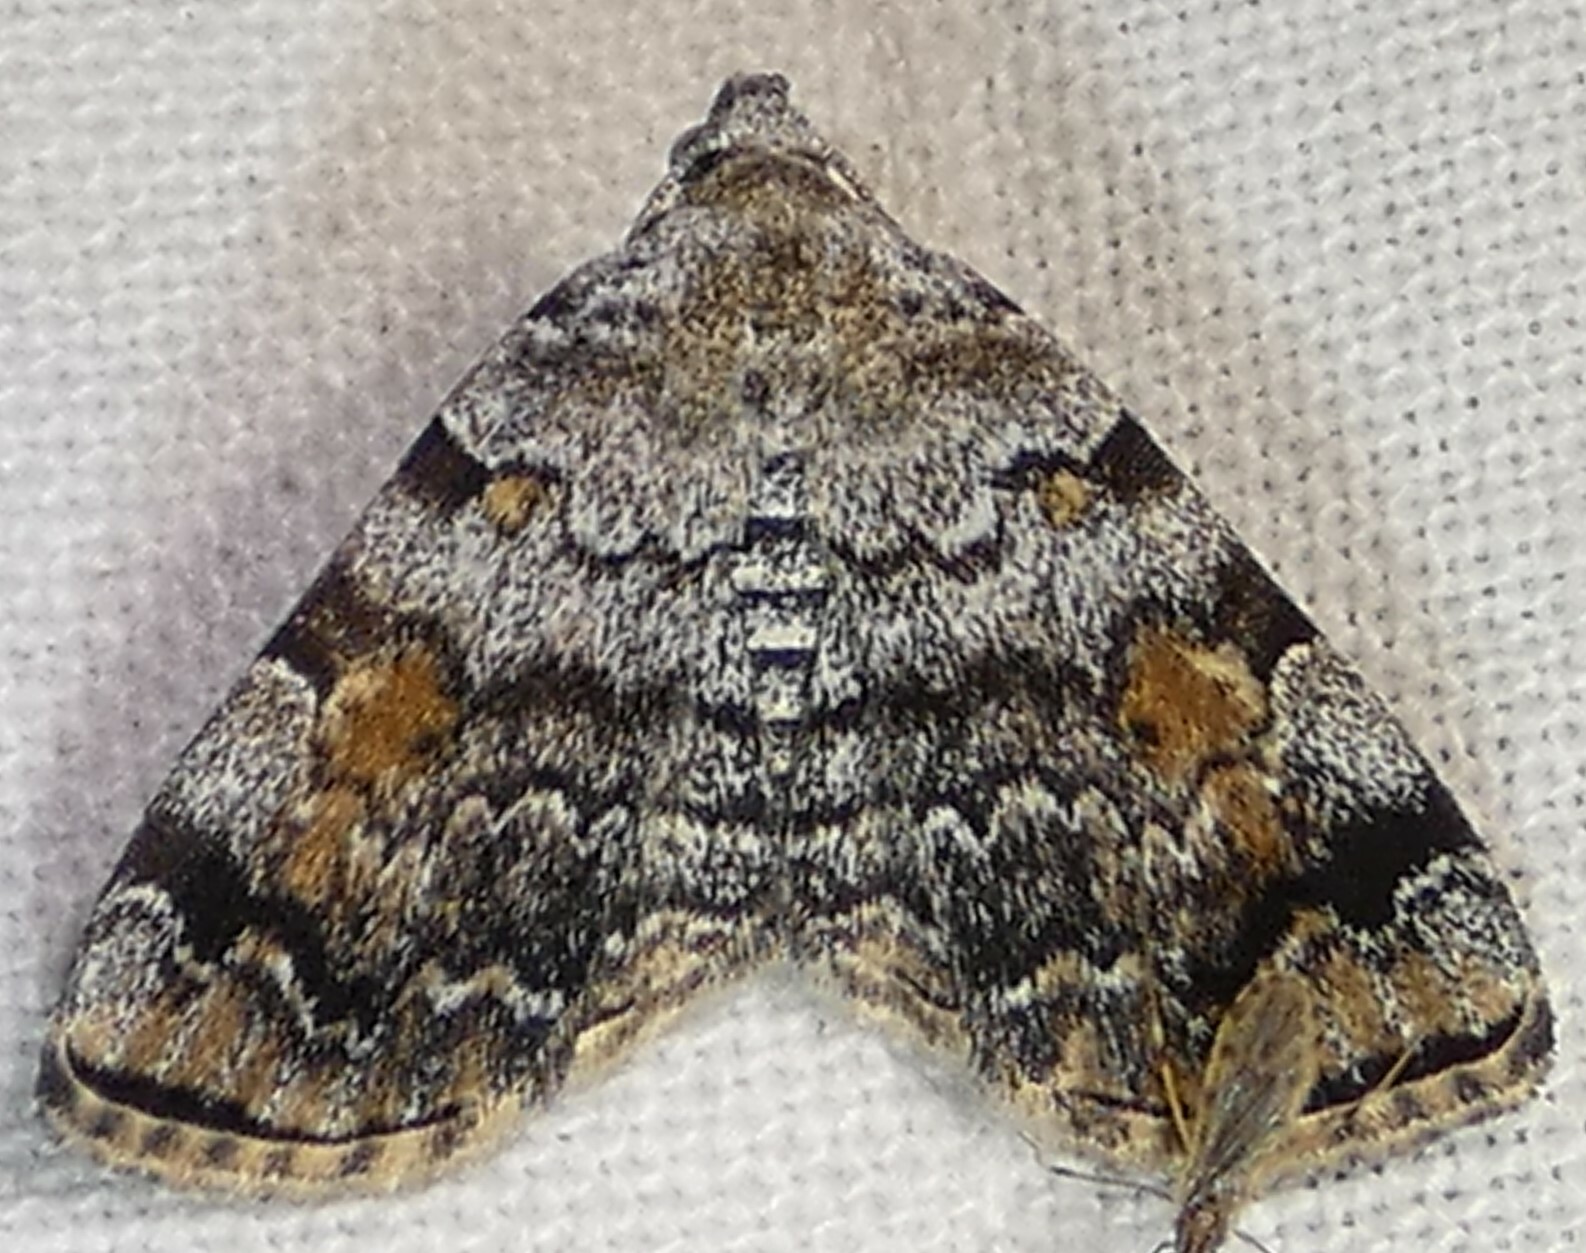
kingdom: Animalia
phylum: Arthropoda
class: Insecta
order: Lepidoptera
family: Erebidae
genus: Idia
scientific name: Idia americalis
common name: American idia moth
